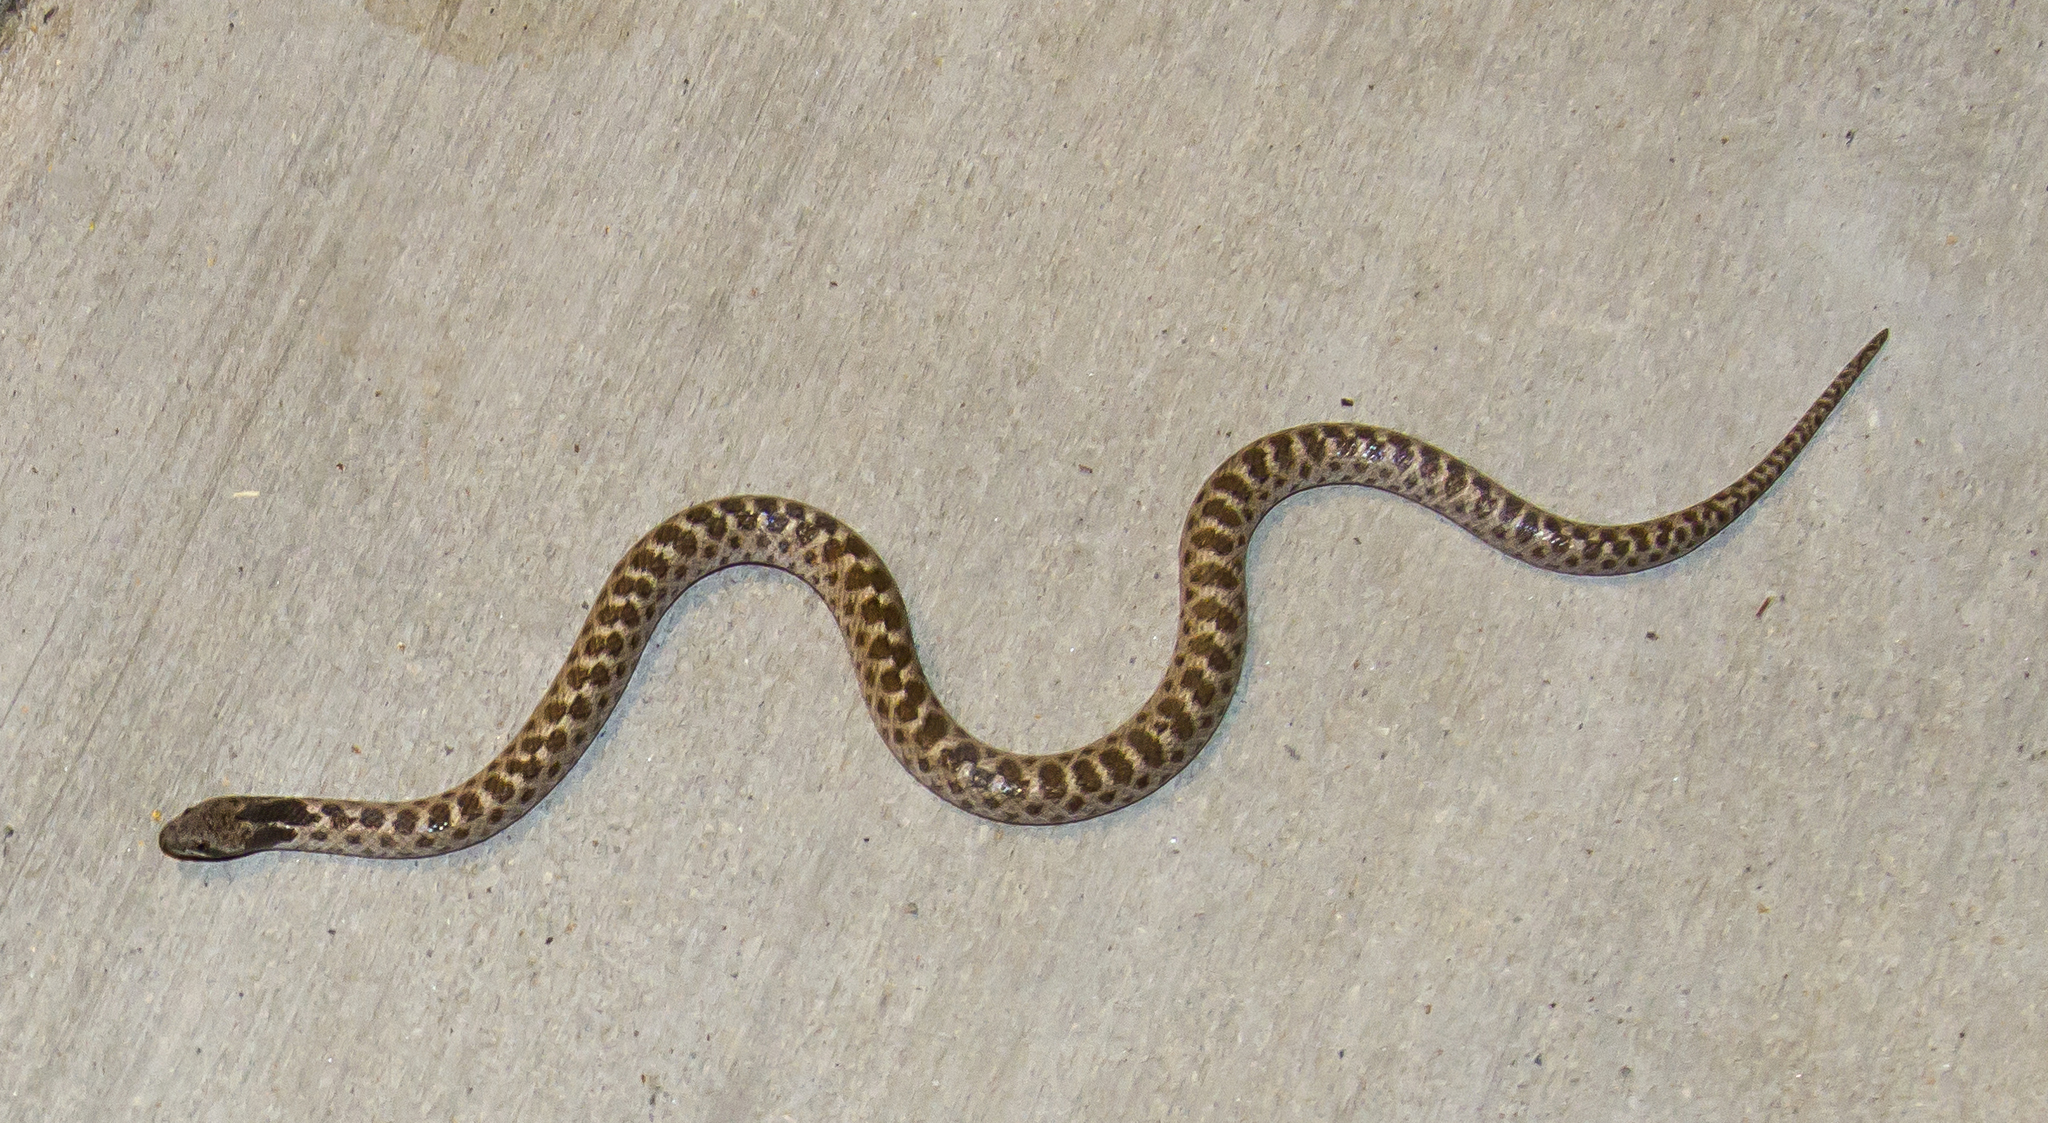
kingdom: Animalia
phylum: Chordata
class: Squamata
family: Colubridae
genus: Hypsiglena
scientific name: Hypsiglena ochrorhynchus
